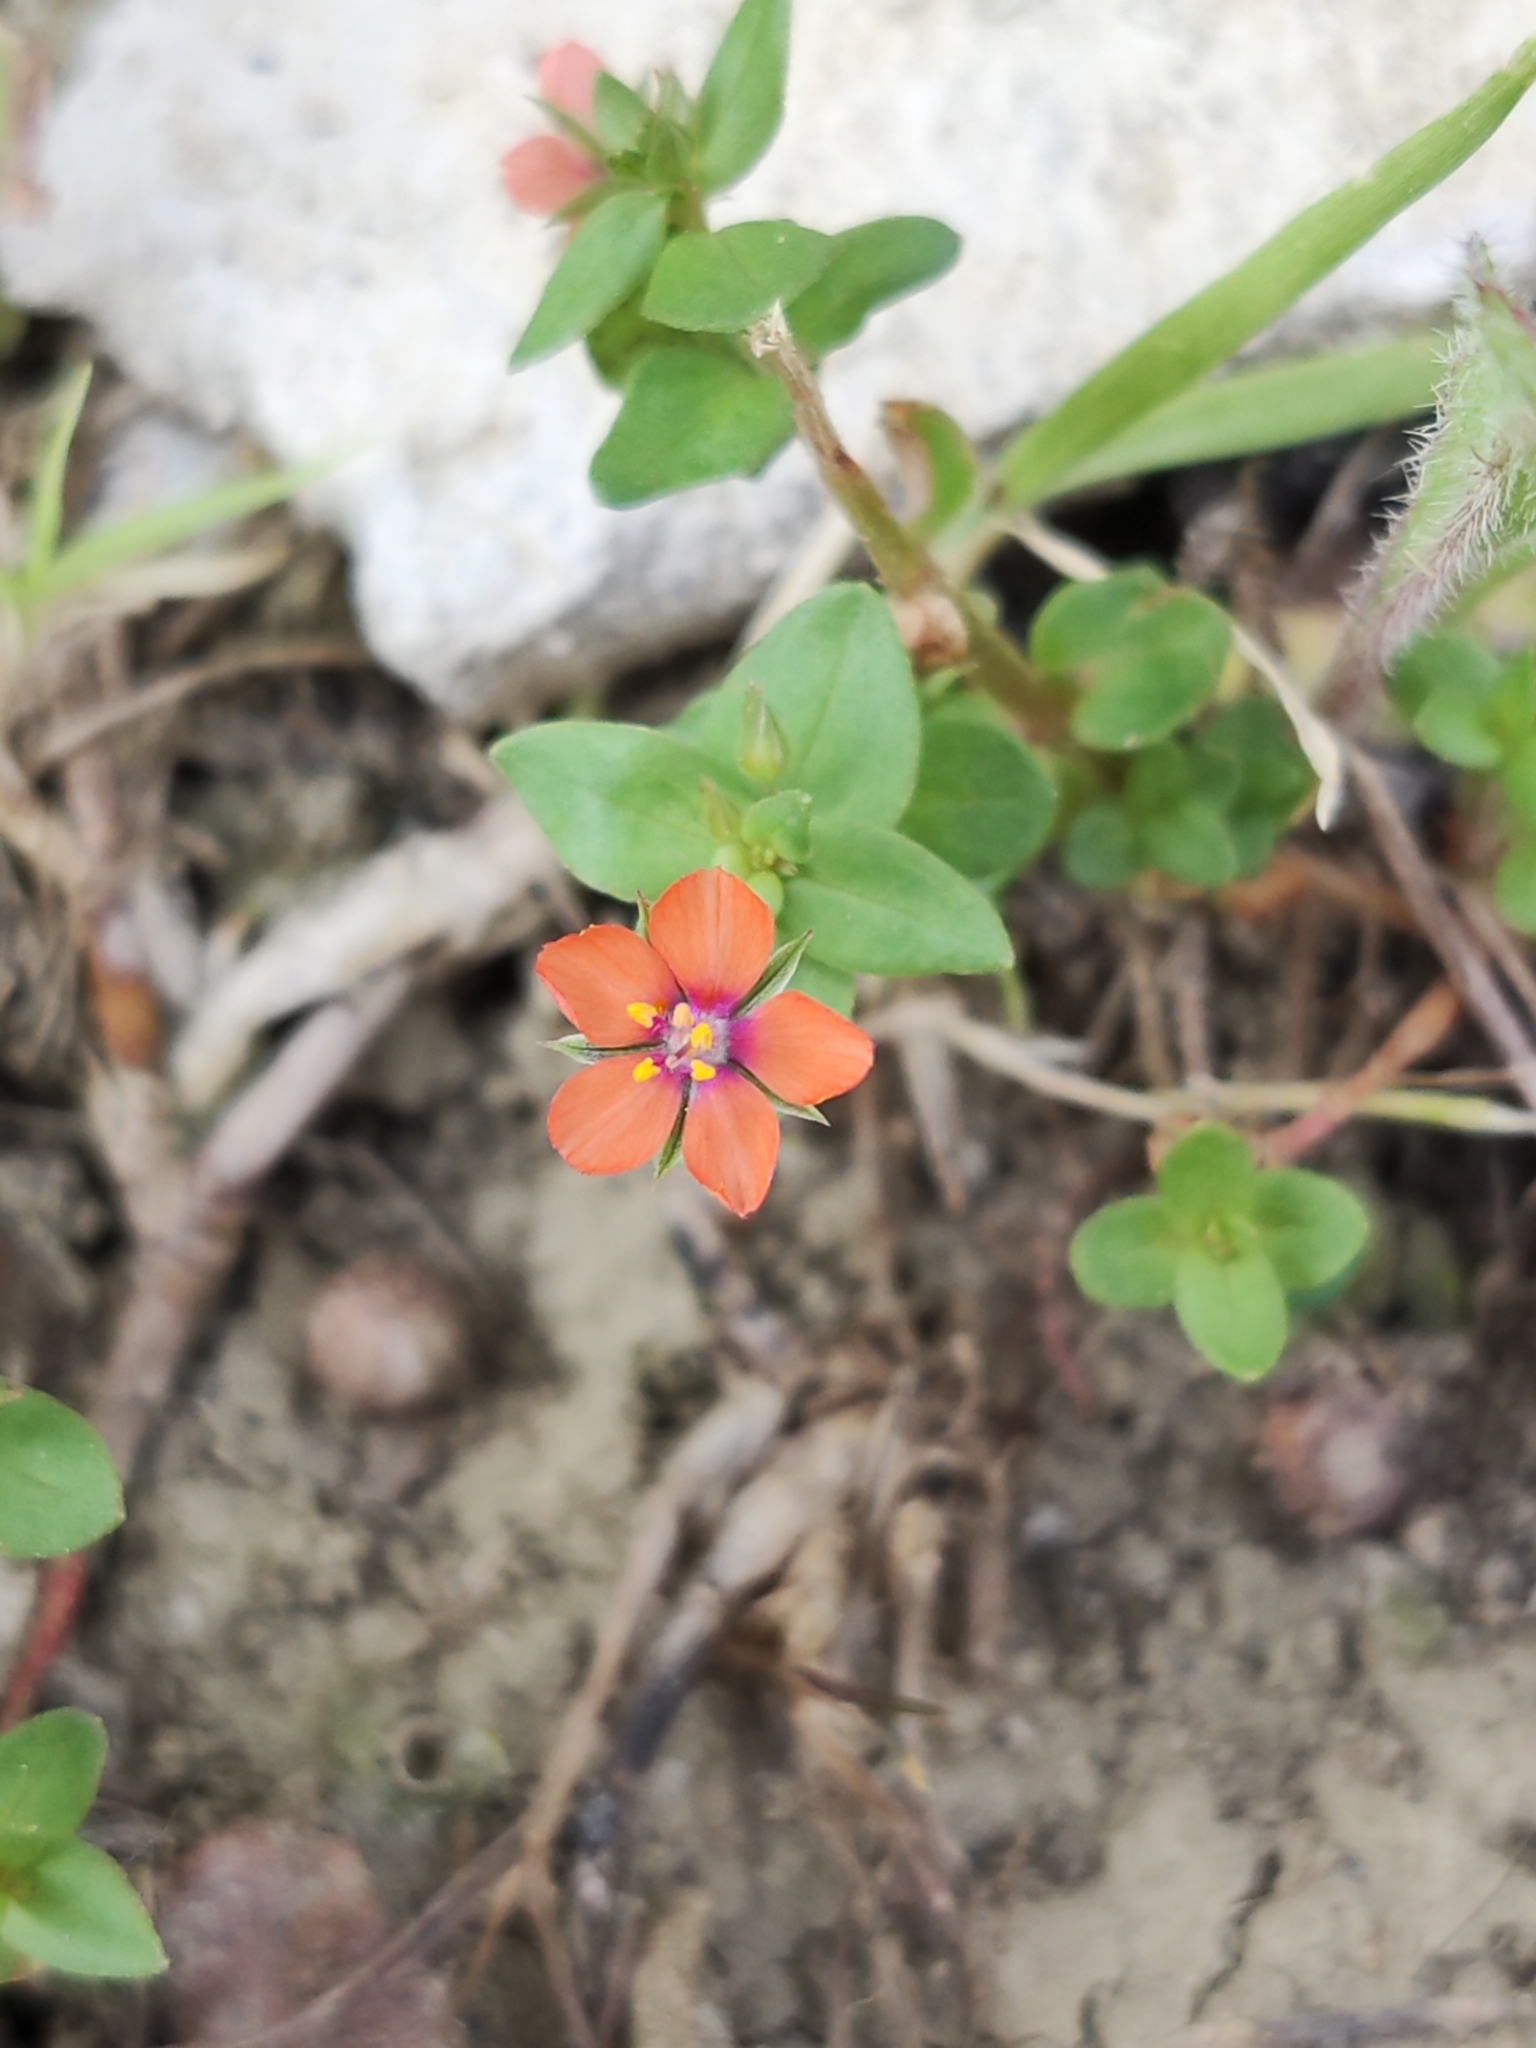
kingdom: Plantae
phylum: Tracheophyta
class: Magnoliopsida
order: Ericales
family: Primulaceae
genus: Lysimachia
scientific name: Lysimachia arvensis
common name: Scarlet pimpernel
